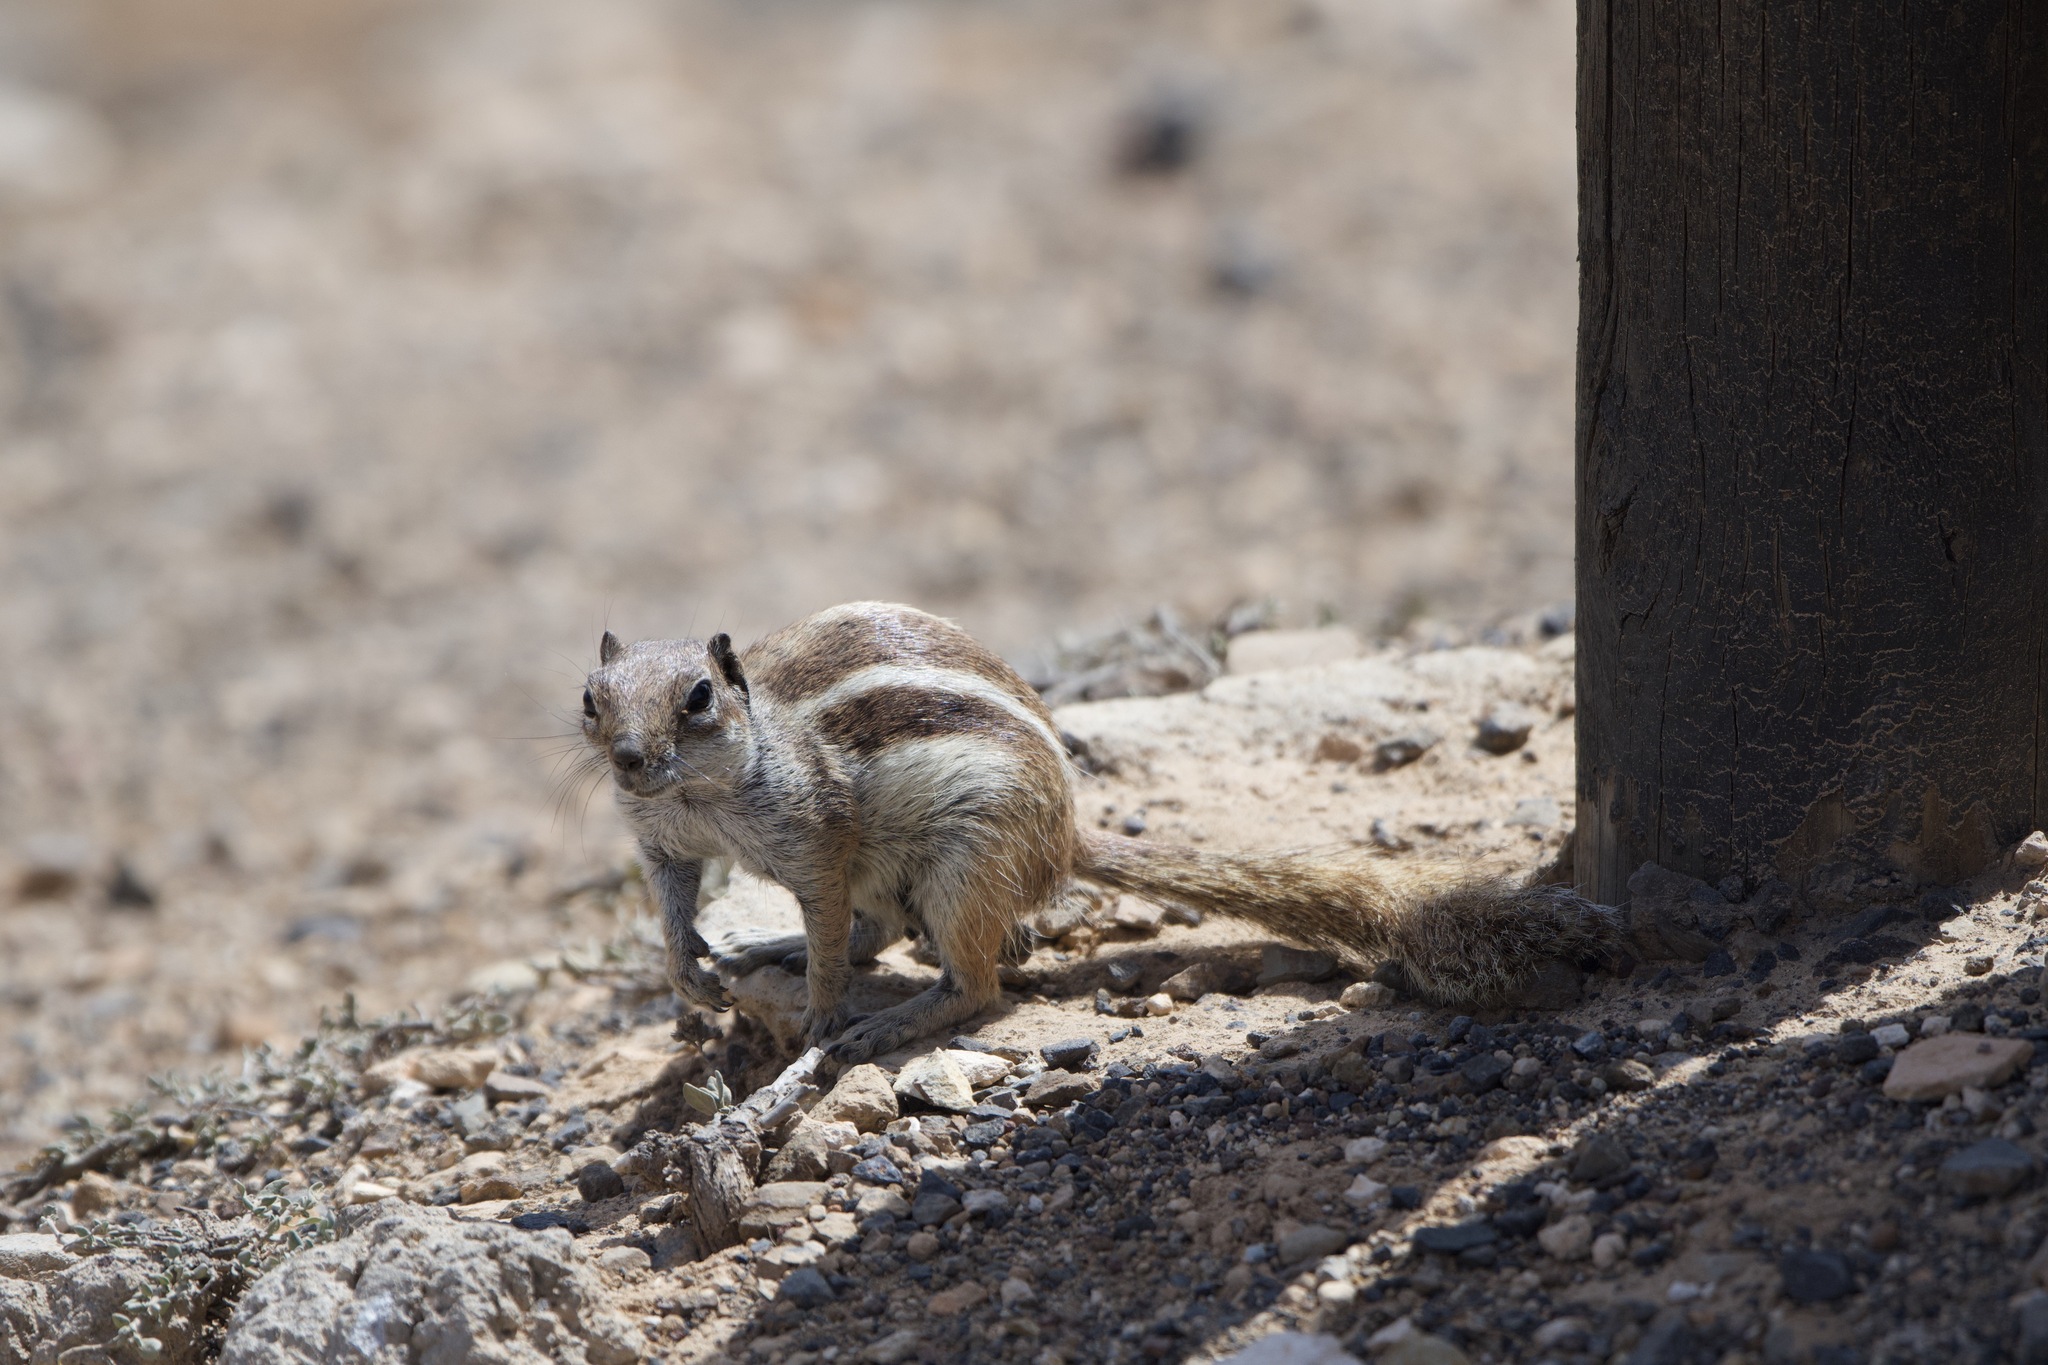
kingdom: Animalia
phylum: Chordata
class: Mammalia
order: Rodentia
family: Sciuridae
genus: Atlantoxerus
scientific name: Atlantoxerus getulus
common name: Barbary ground squirrel
